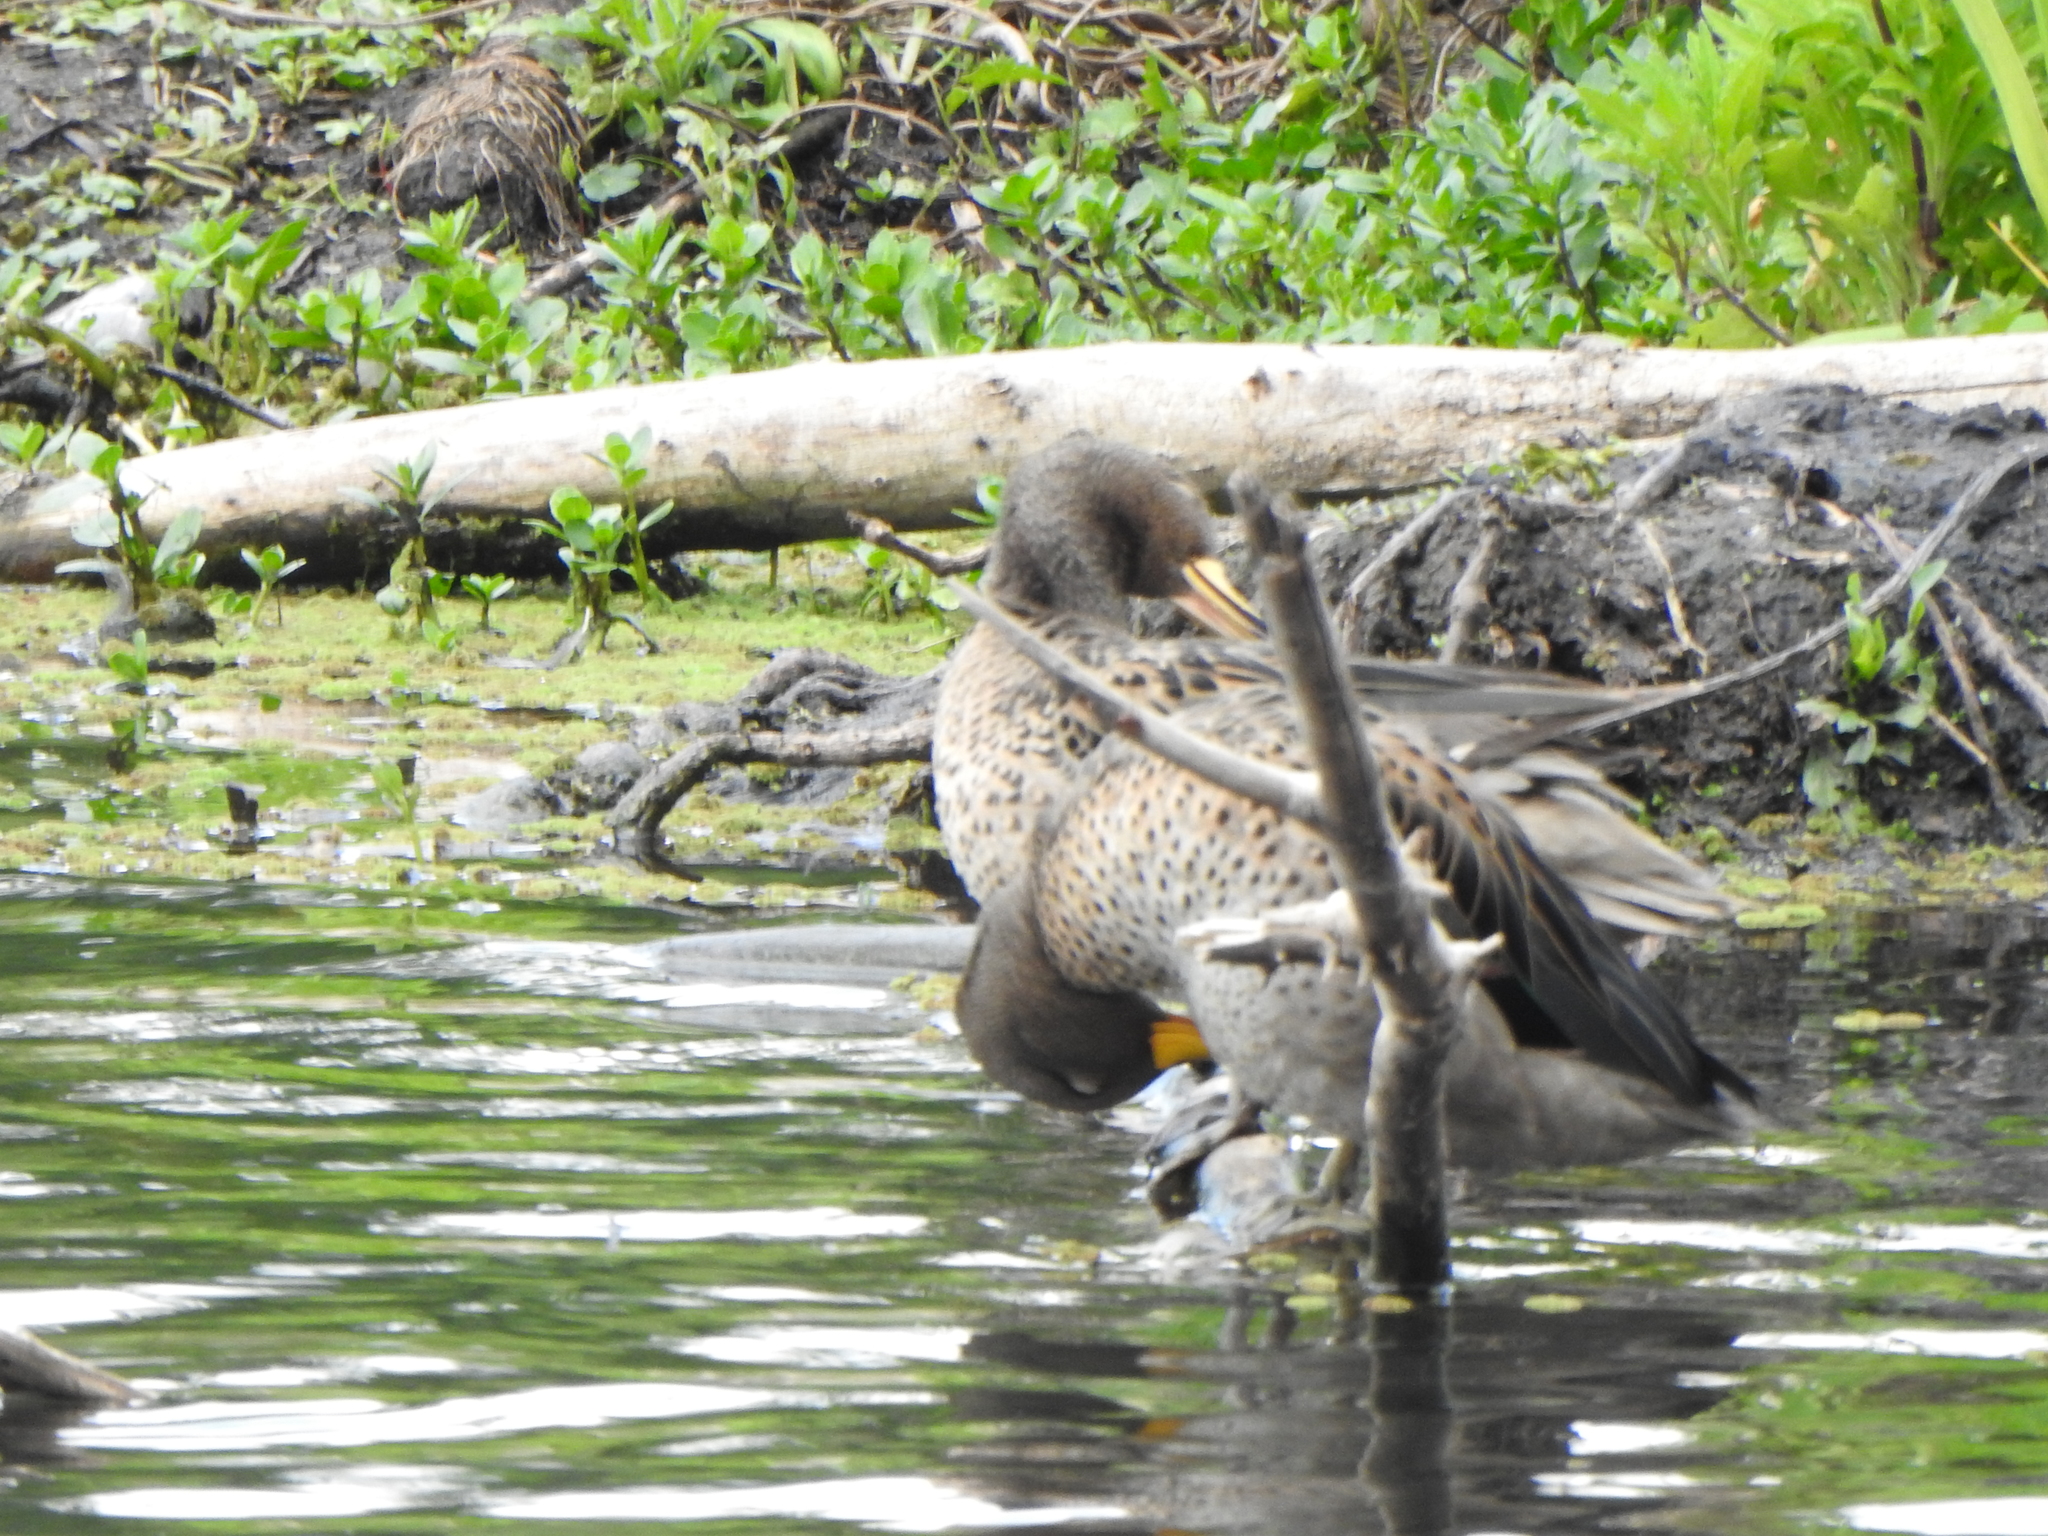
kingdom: Animalia
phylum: Chordata
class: Aves
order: Anseriformes
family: Anatidae
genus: Anas
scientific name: Anas flavirostris
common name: Yellow-billed teal
